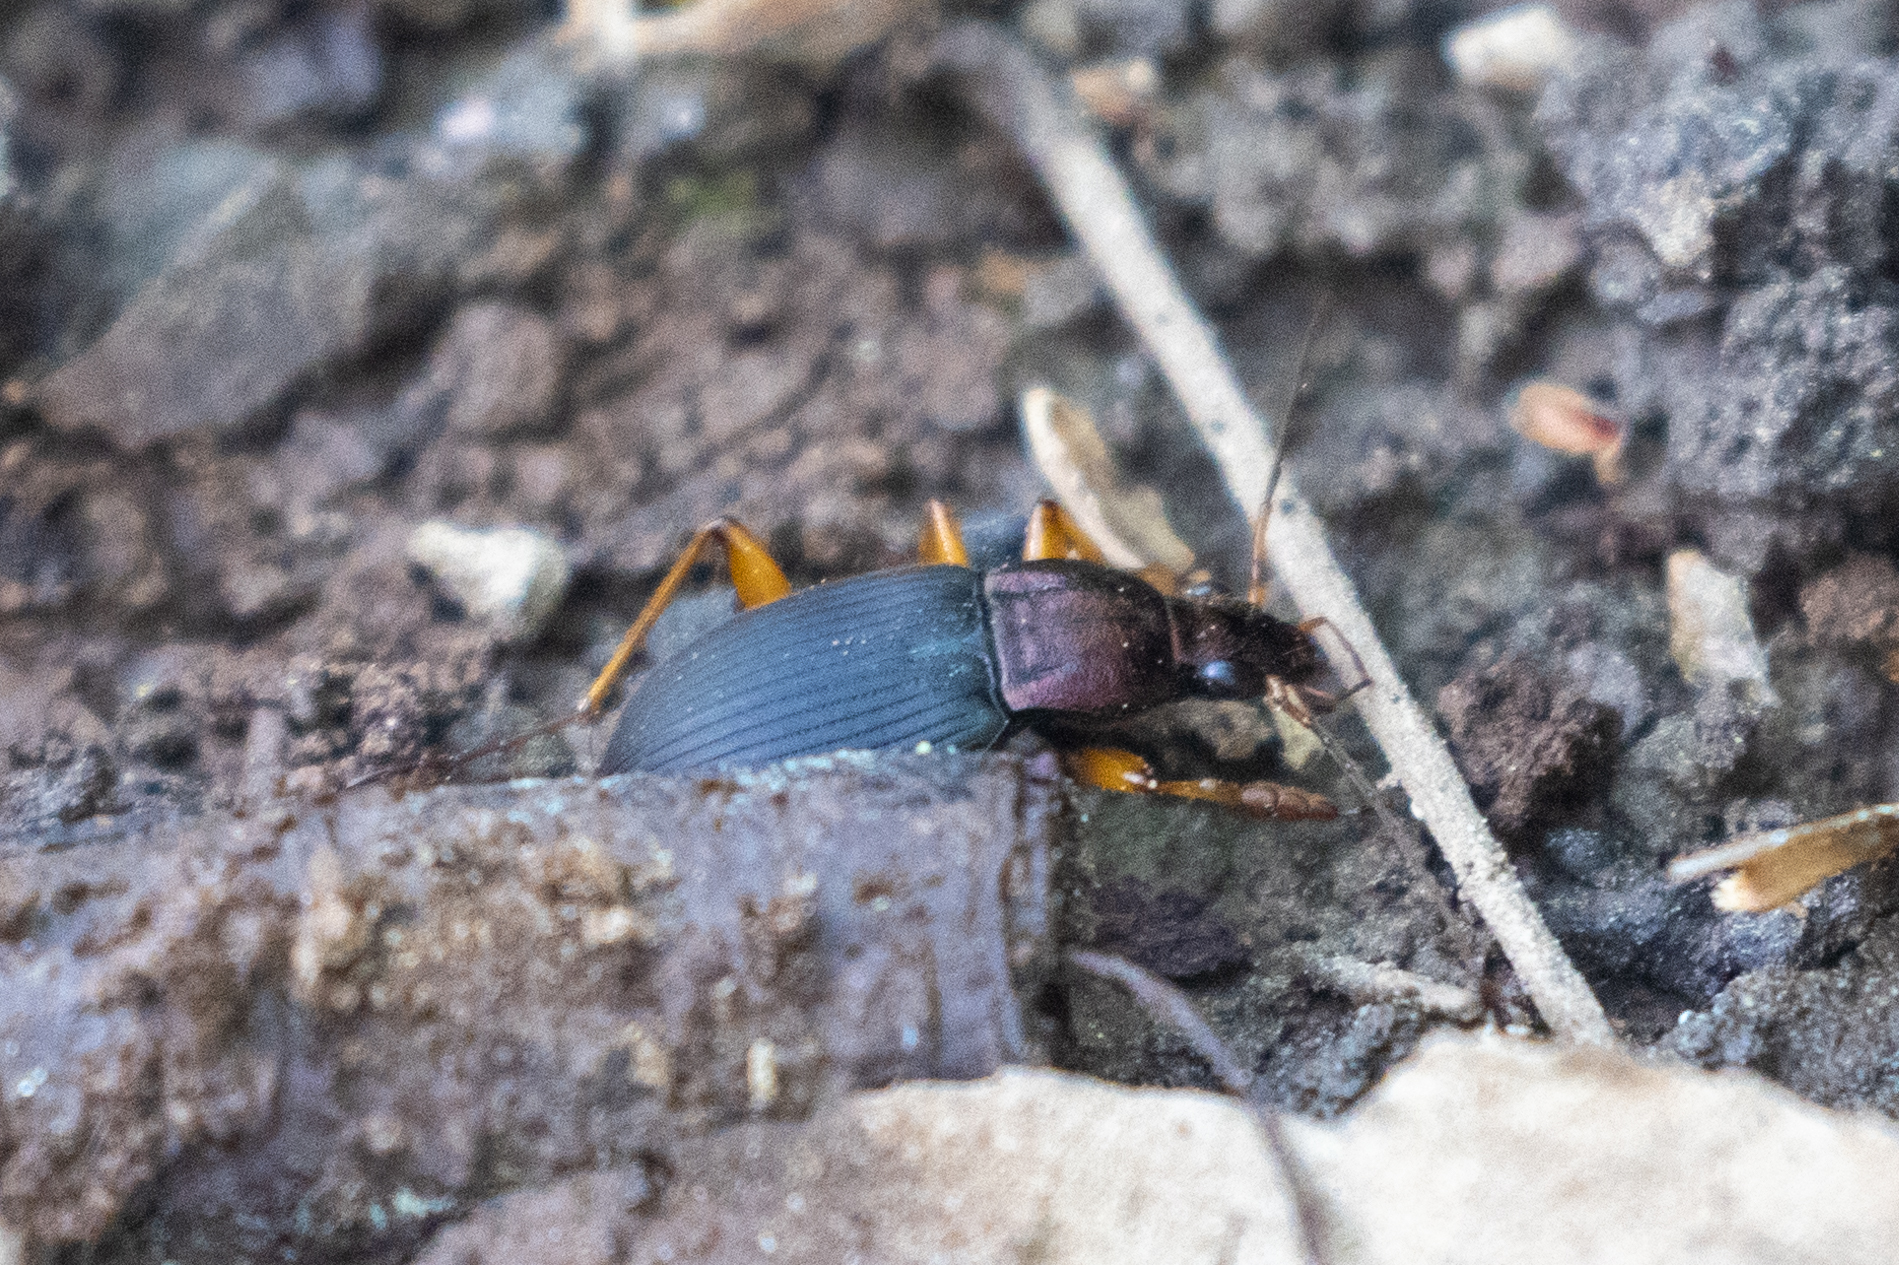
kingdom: Animalia
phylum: Arthropoda
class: Insecta
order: Coleoptera
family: Carabidae
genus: Chlaenius
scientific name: Chlaenius aestivus
